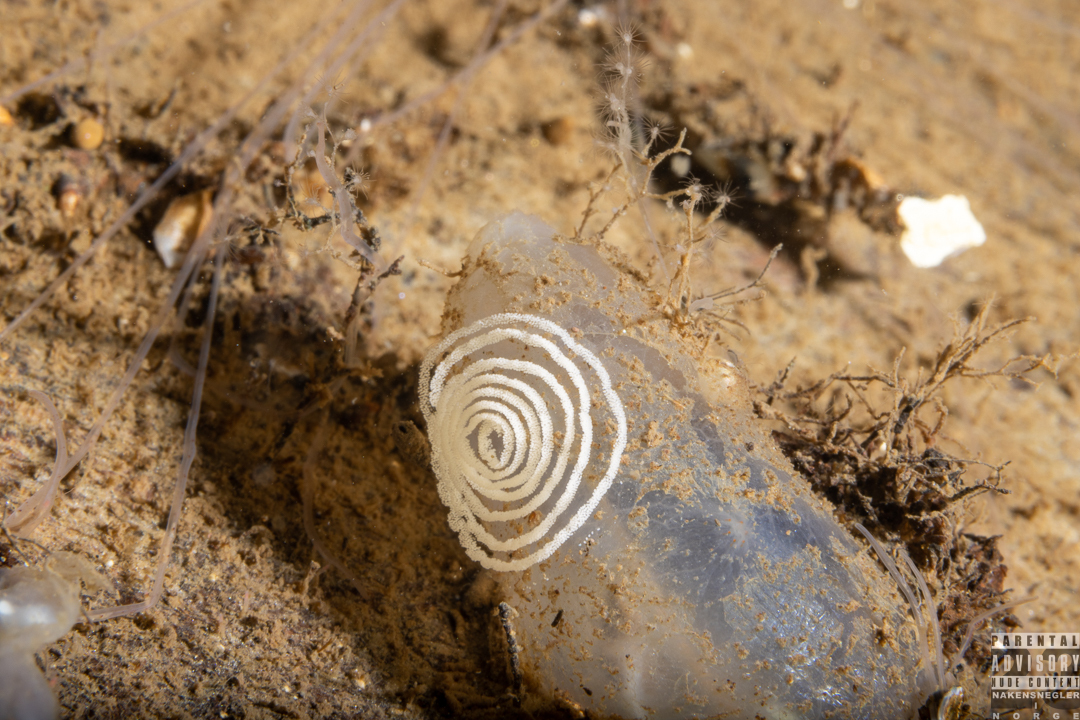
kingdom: Animalia
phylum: Mollusca
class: Gastropoda
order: Nudibranchia
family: Heroidae
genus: Hero
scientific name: Hero formosa
